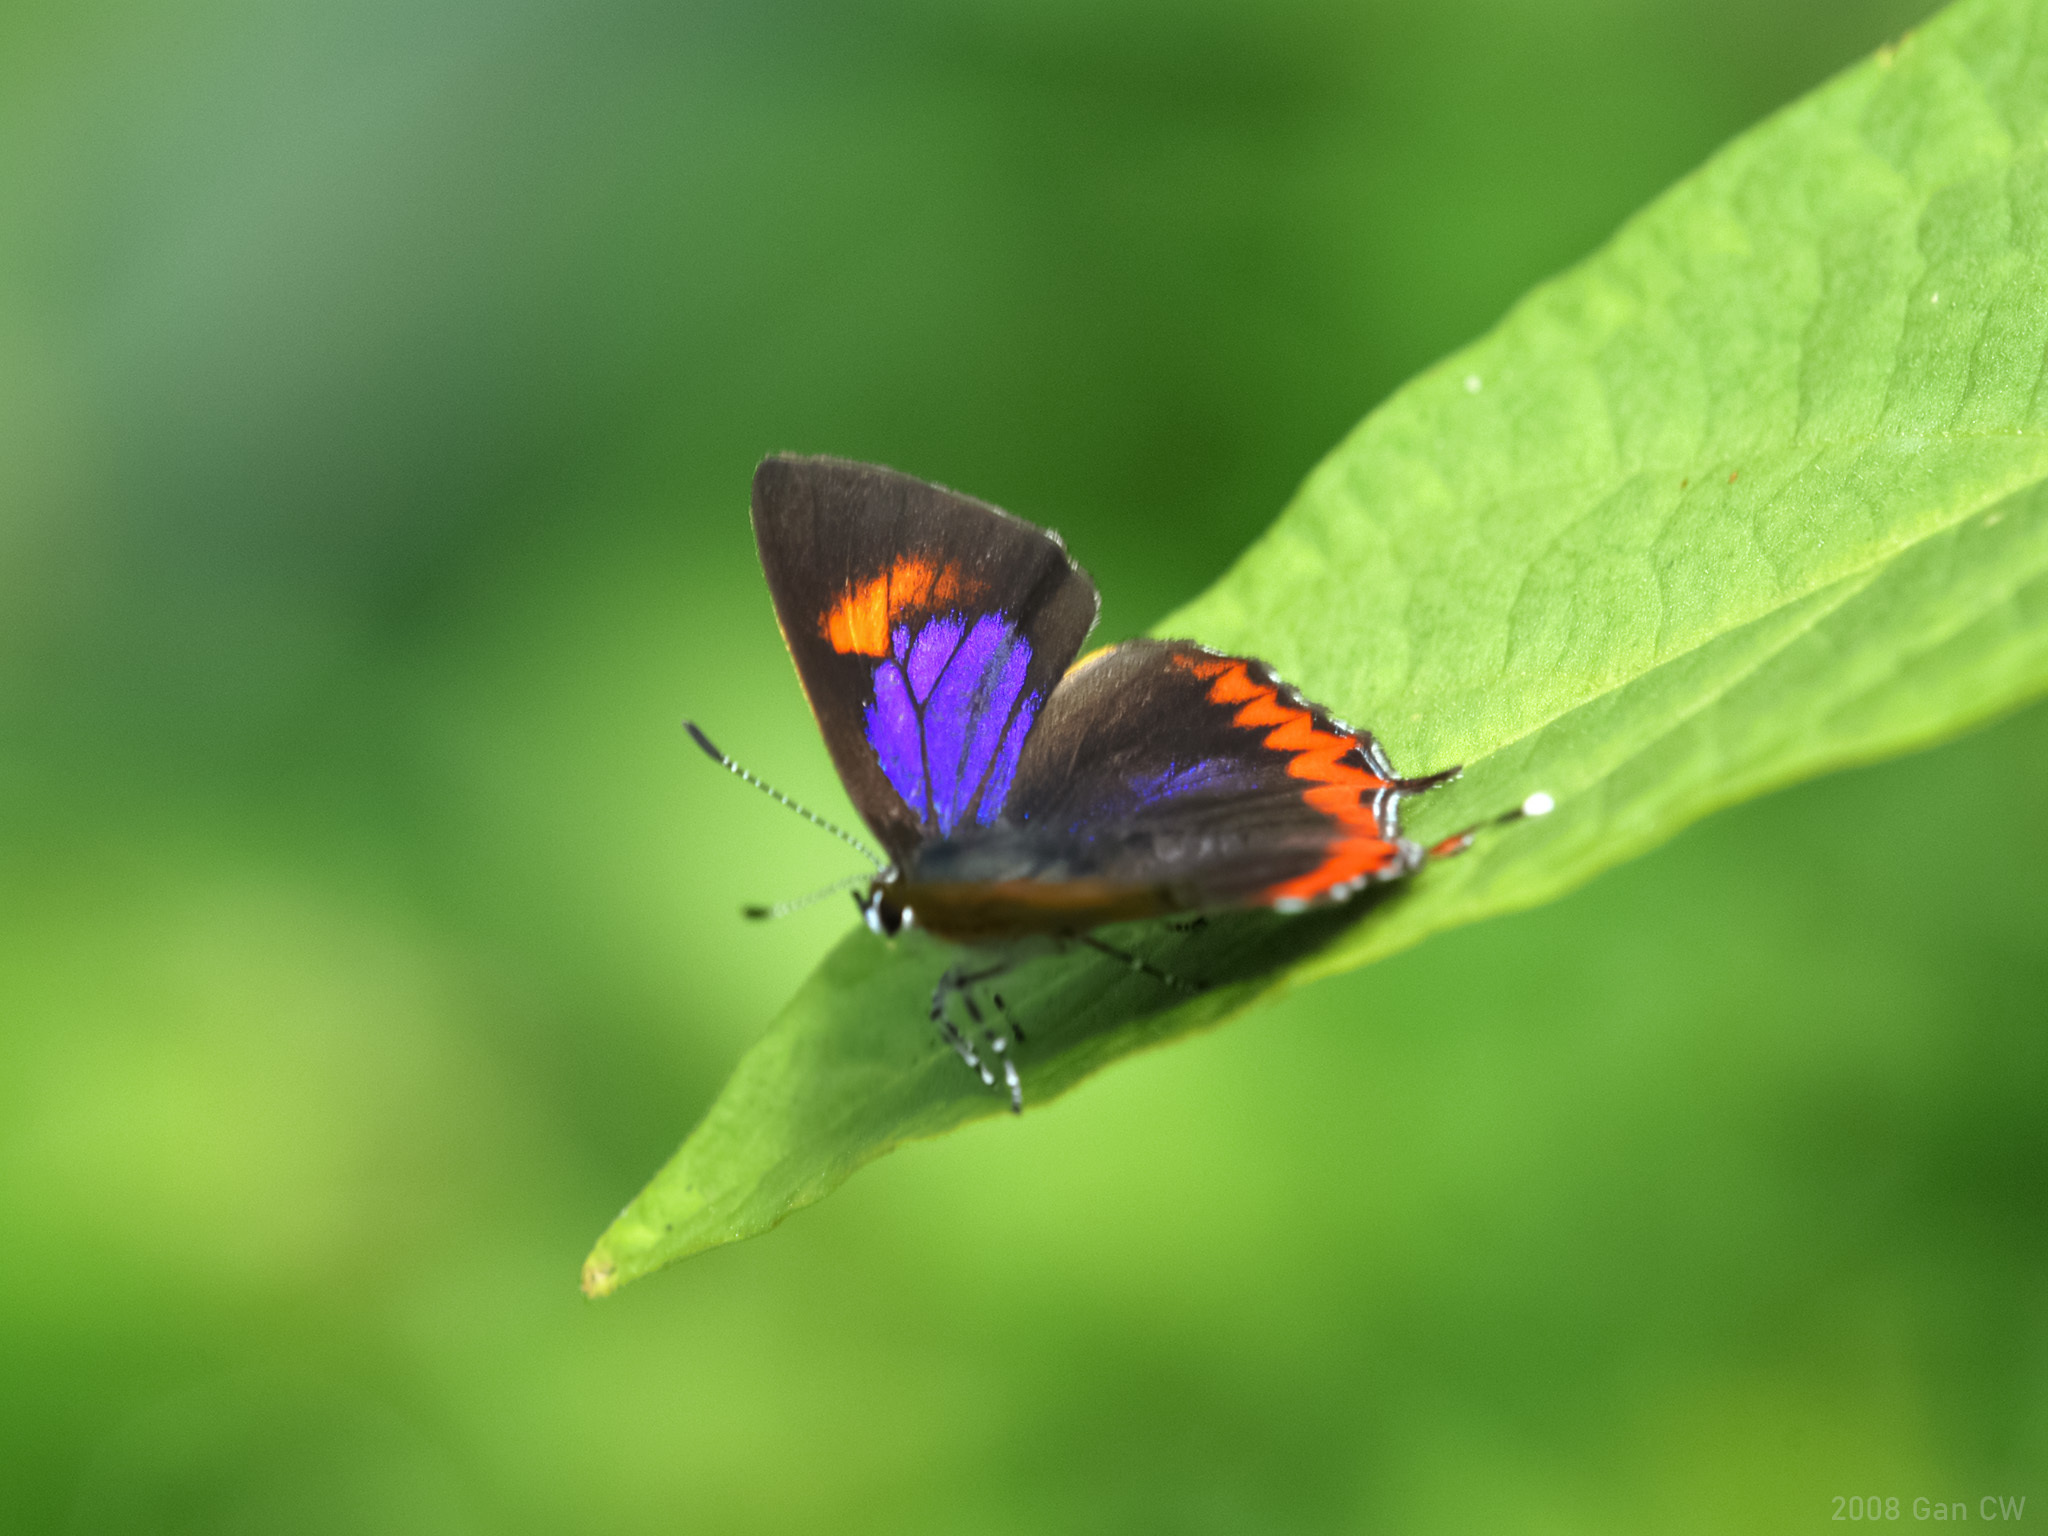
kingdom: Animalia
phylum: Arthropoda
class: Insecta
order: Lepidoptera
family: Lycaenidae
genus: Heliophorus
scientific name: Heliophorus epicles
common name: Purple sapphire
